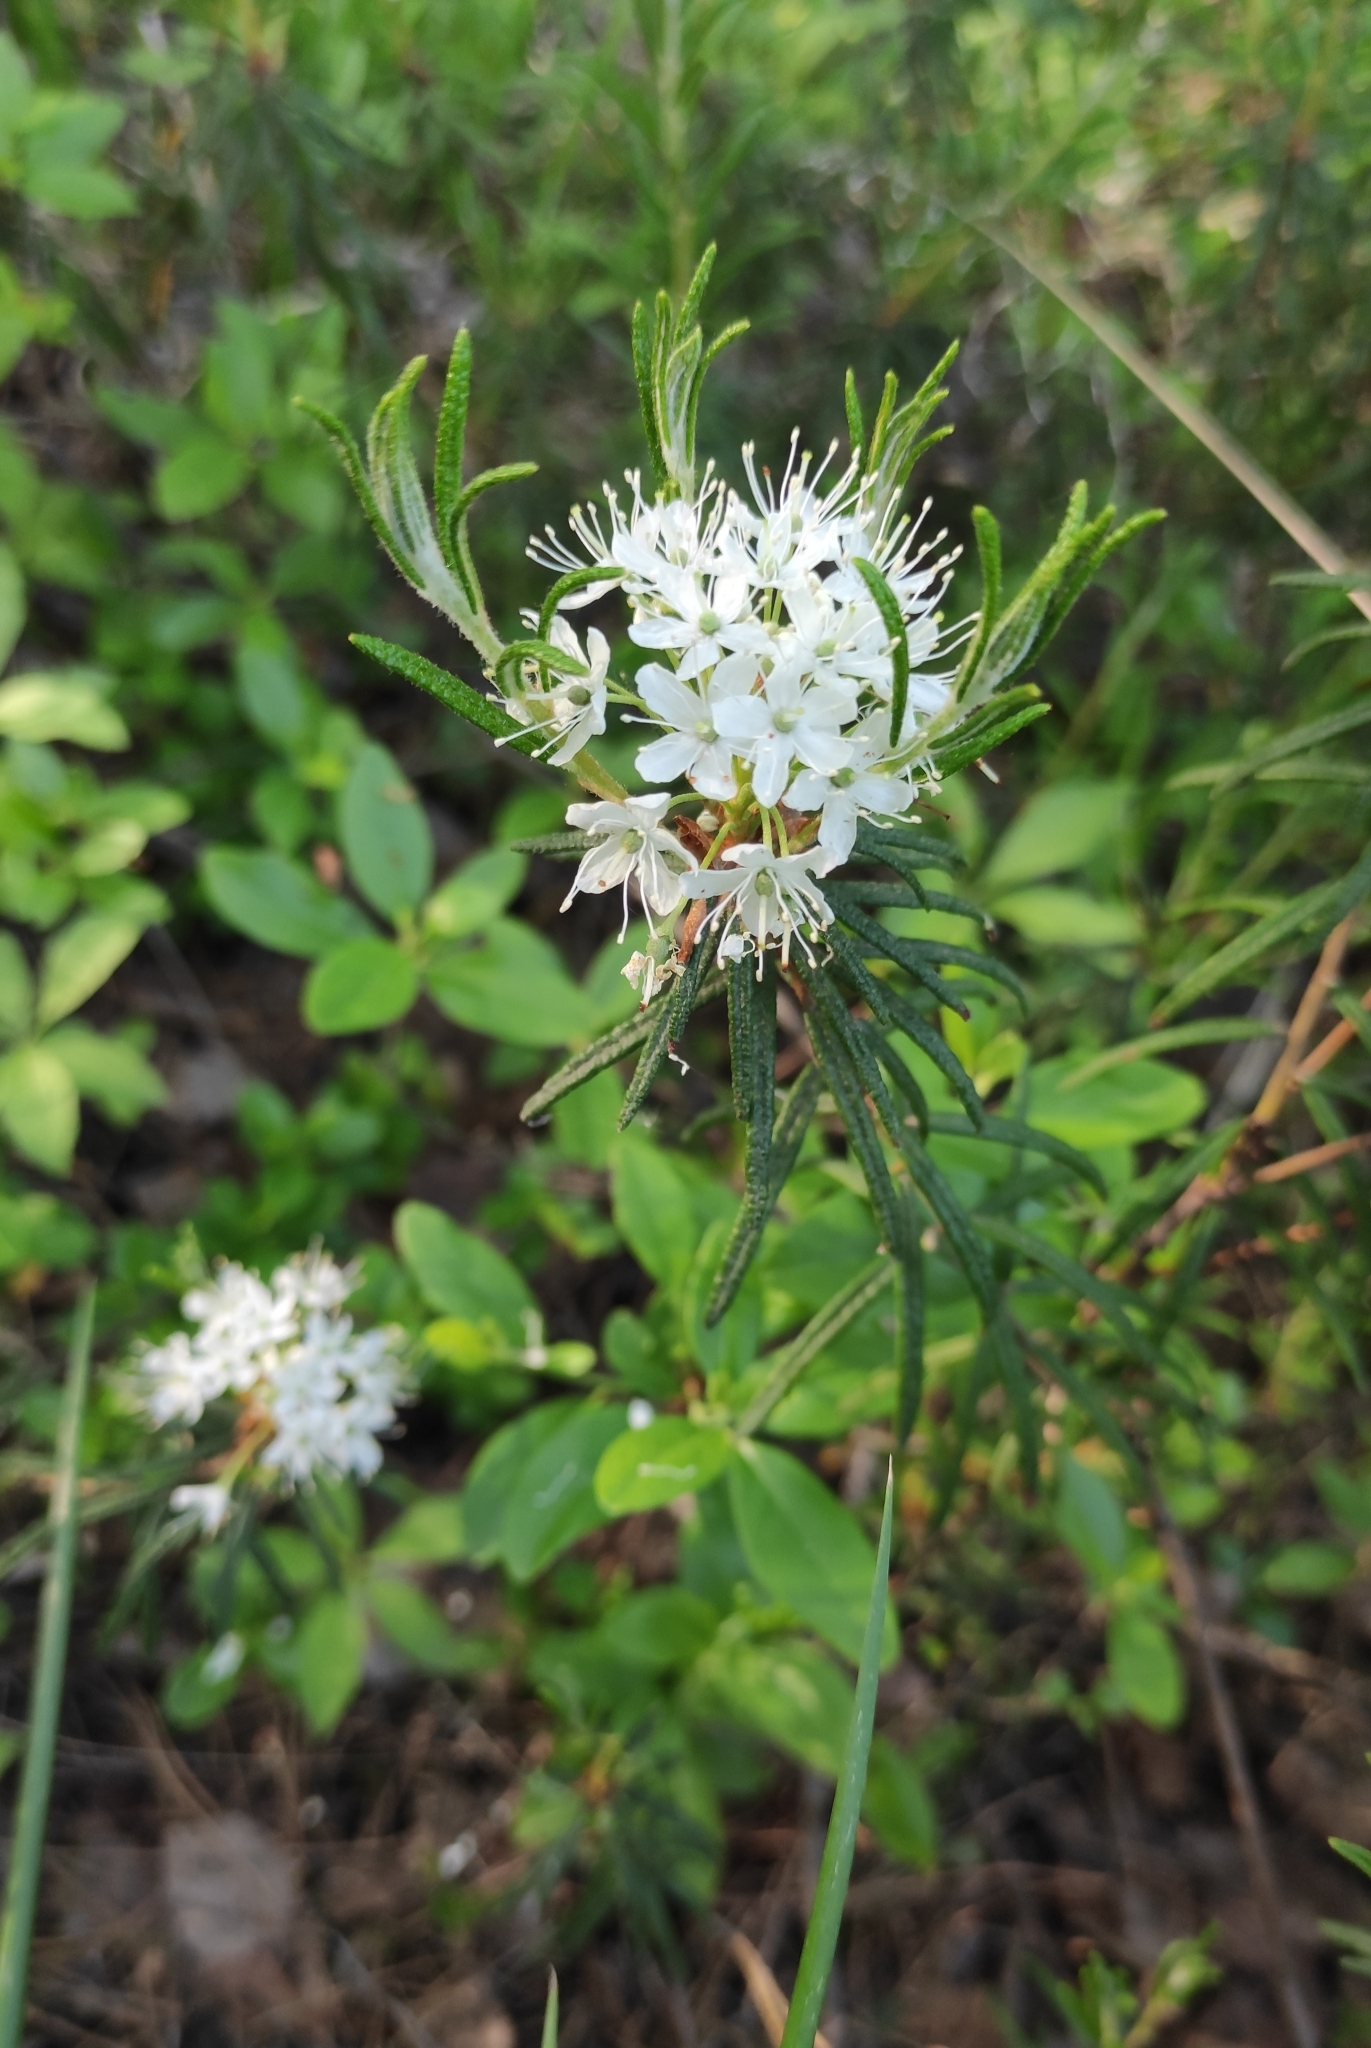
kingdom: Plantae
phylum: Tracheophyta
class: Magnoliopsida
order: Ericales
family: Ericaceae
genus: Rhododendron
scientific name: Rhododendron tomentosum
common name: Marsh labrador tea
